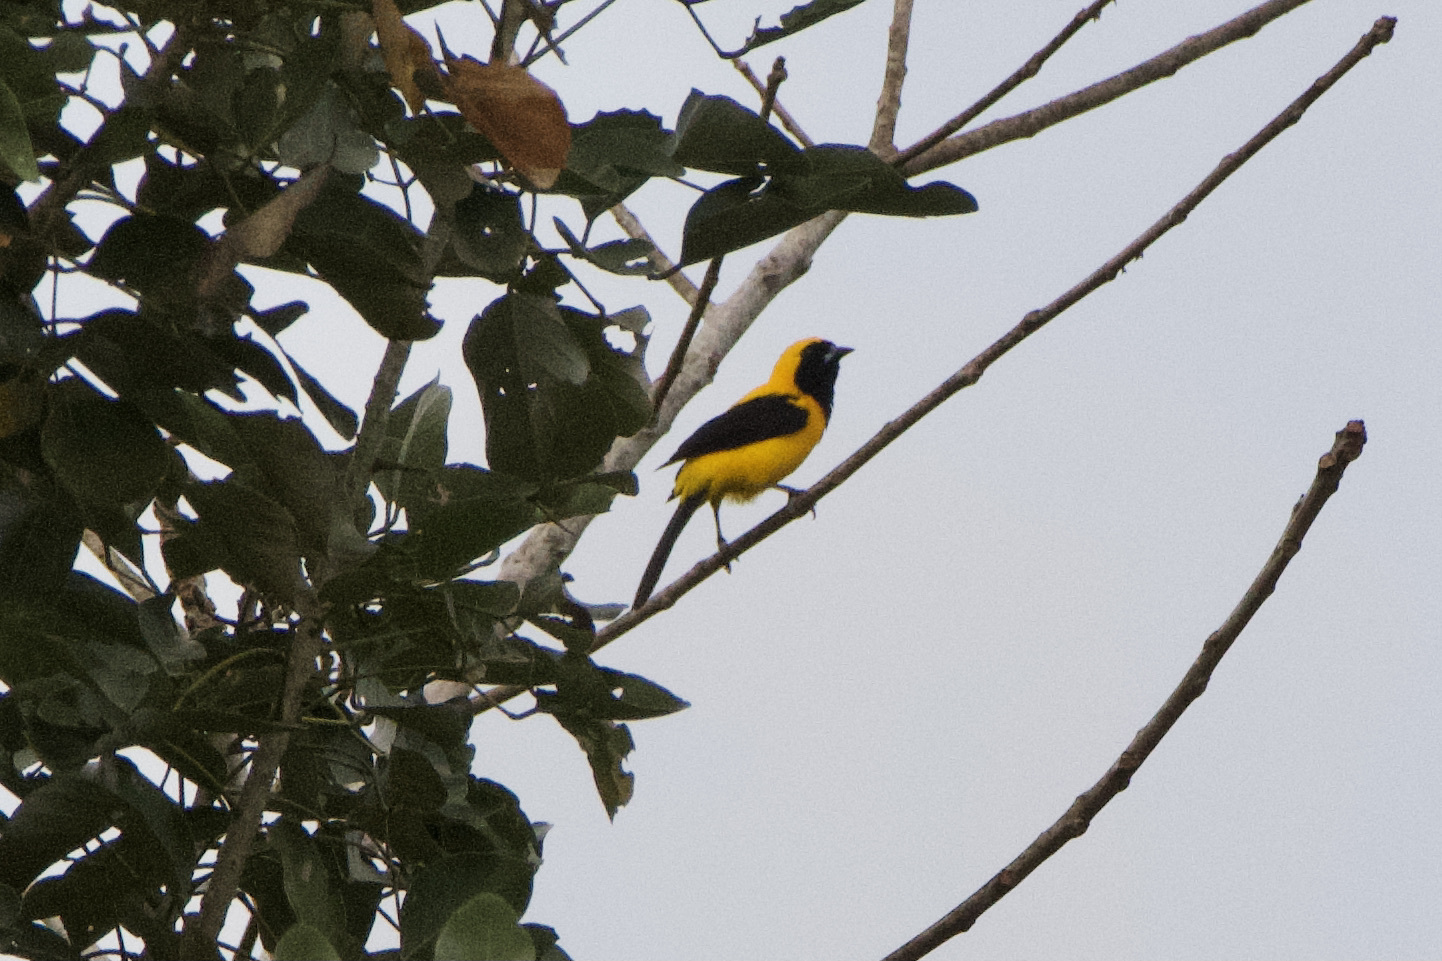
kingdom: Animalia
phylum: Chordata
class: Aves
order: Passeriformes
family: Icteridae
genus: Icterus
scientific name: Icterus chrysater
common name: Yellow-backed oriole
